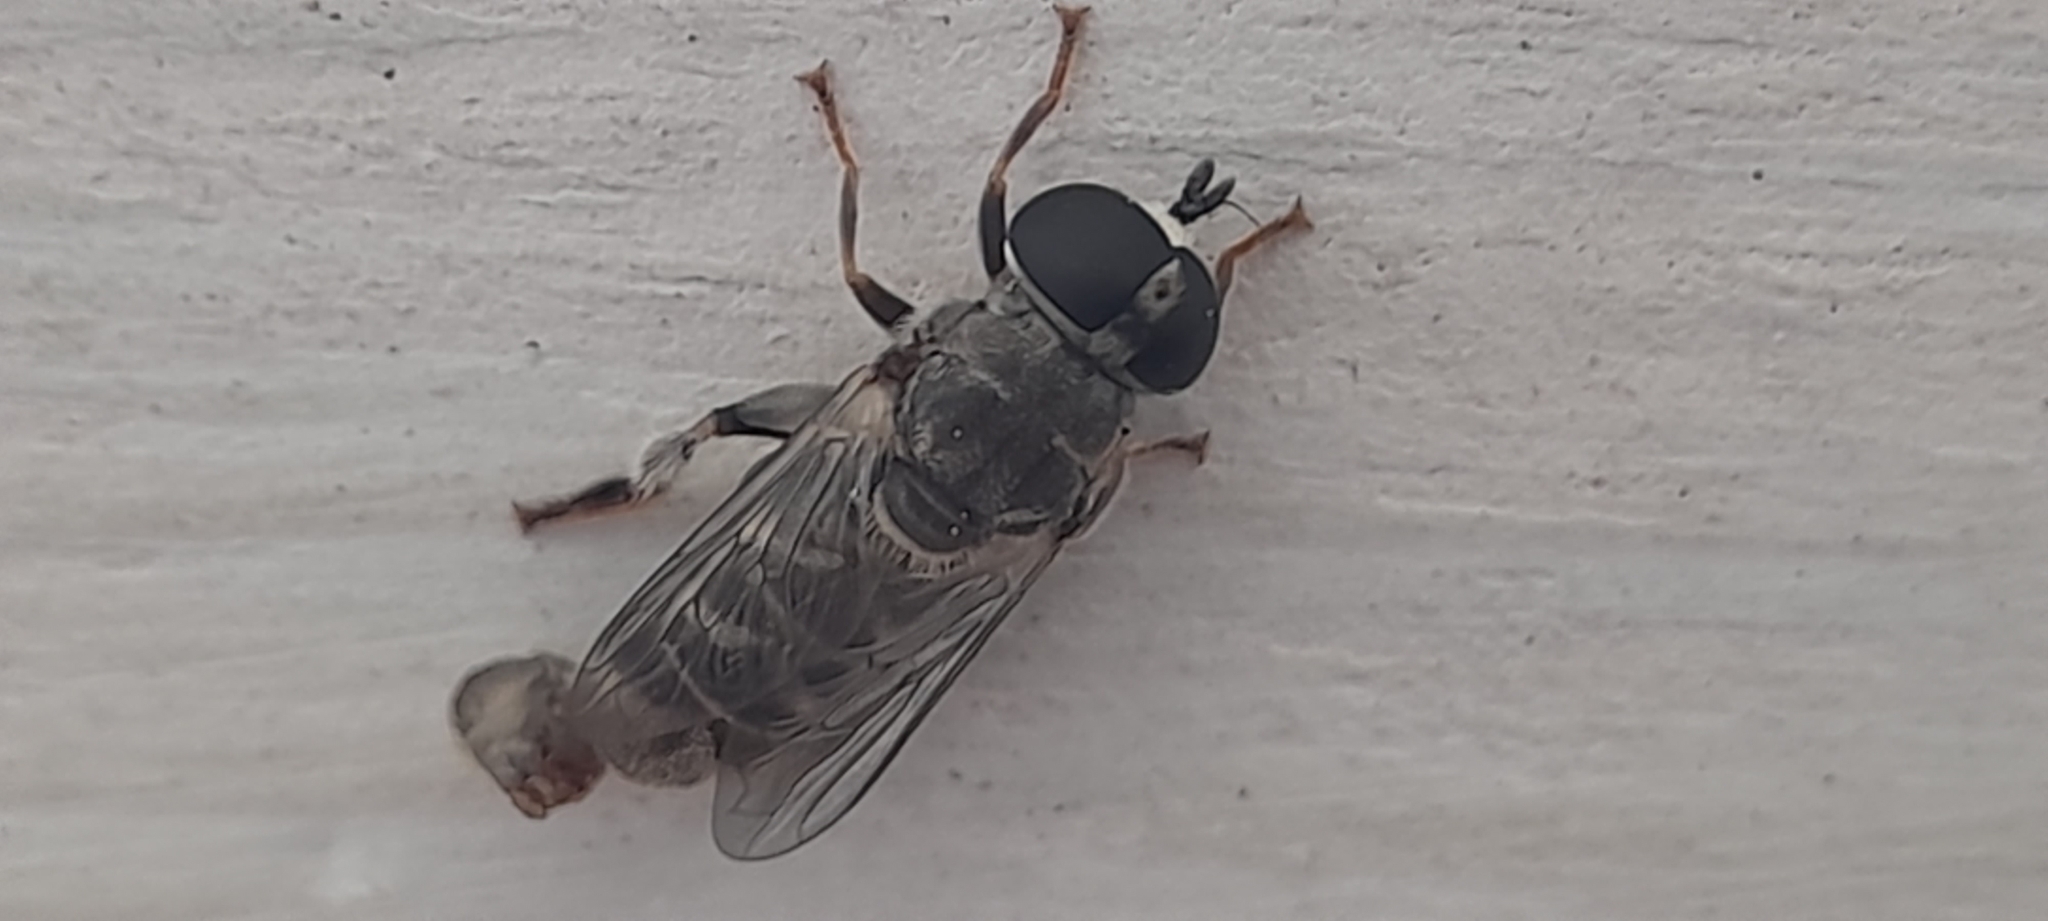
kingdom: Animalia
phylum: Arthropoda
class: Insecta
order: Diptera
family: Syrphidae
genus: Eumerus
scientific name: Eumerus figurans
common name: Ginger maggot
